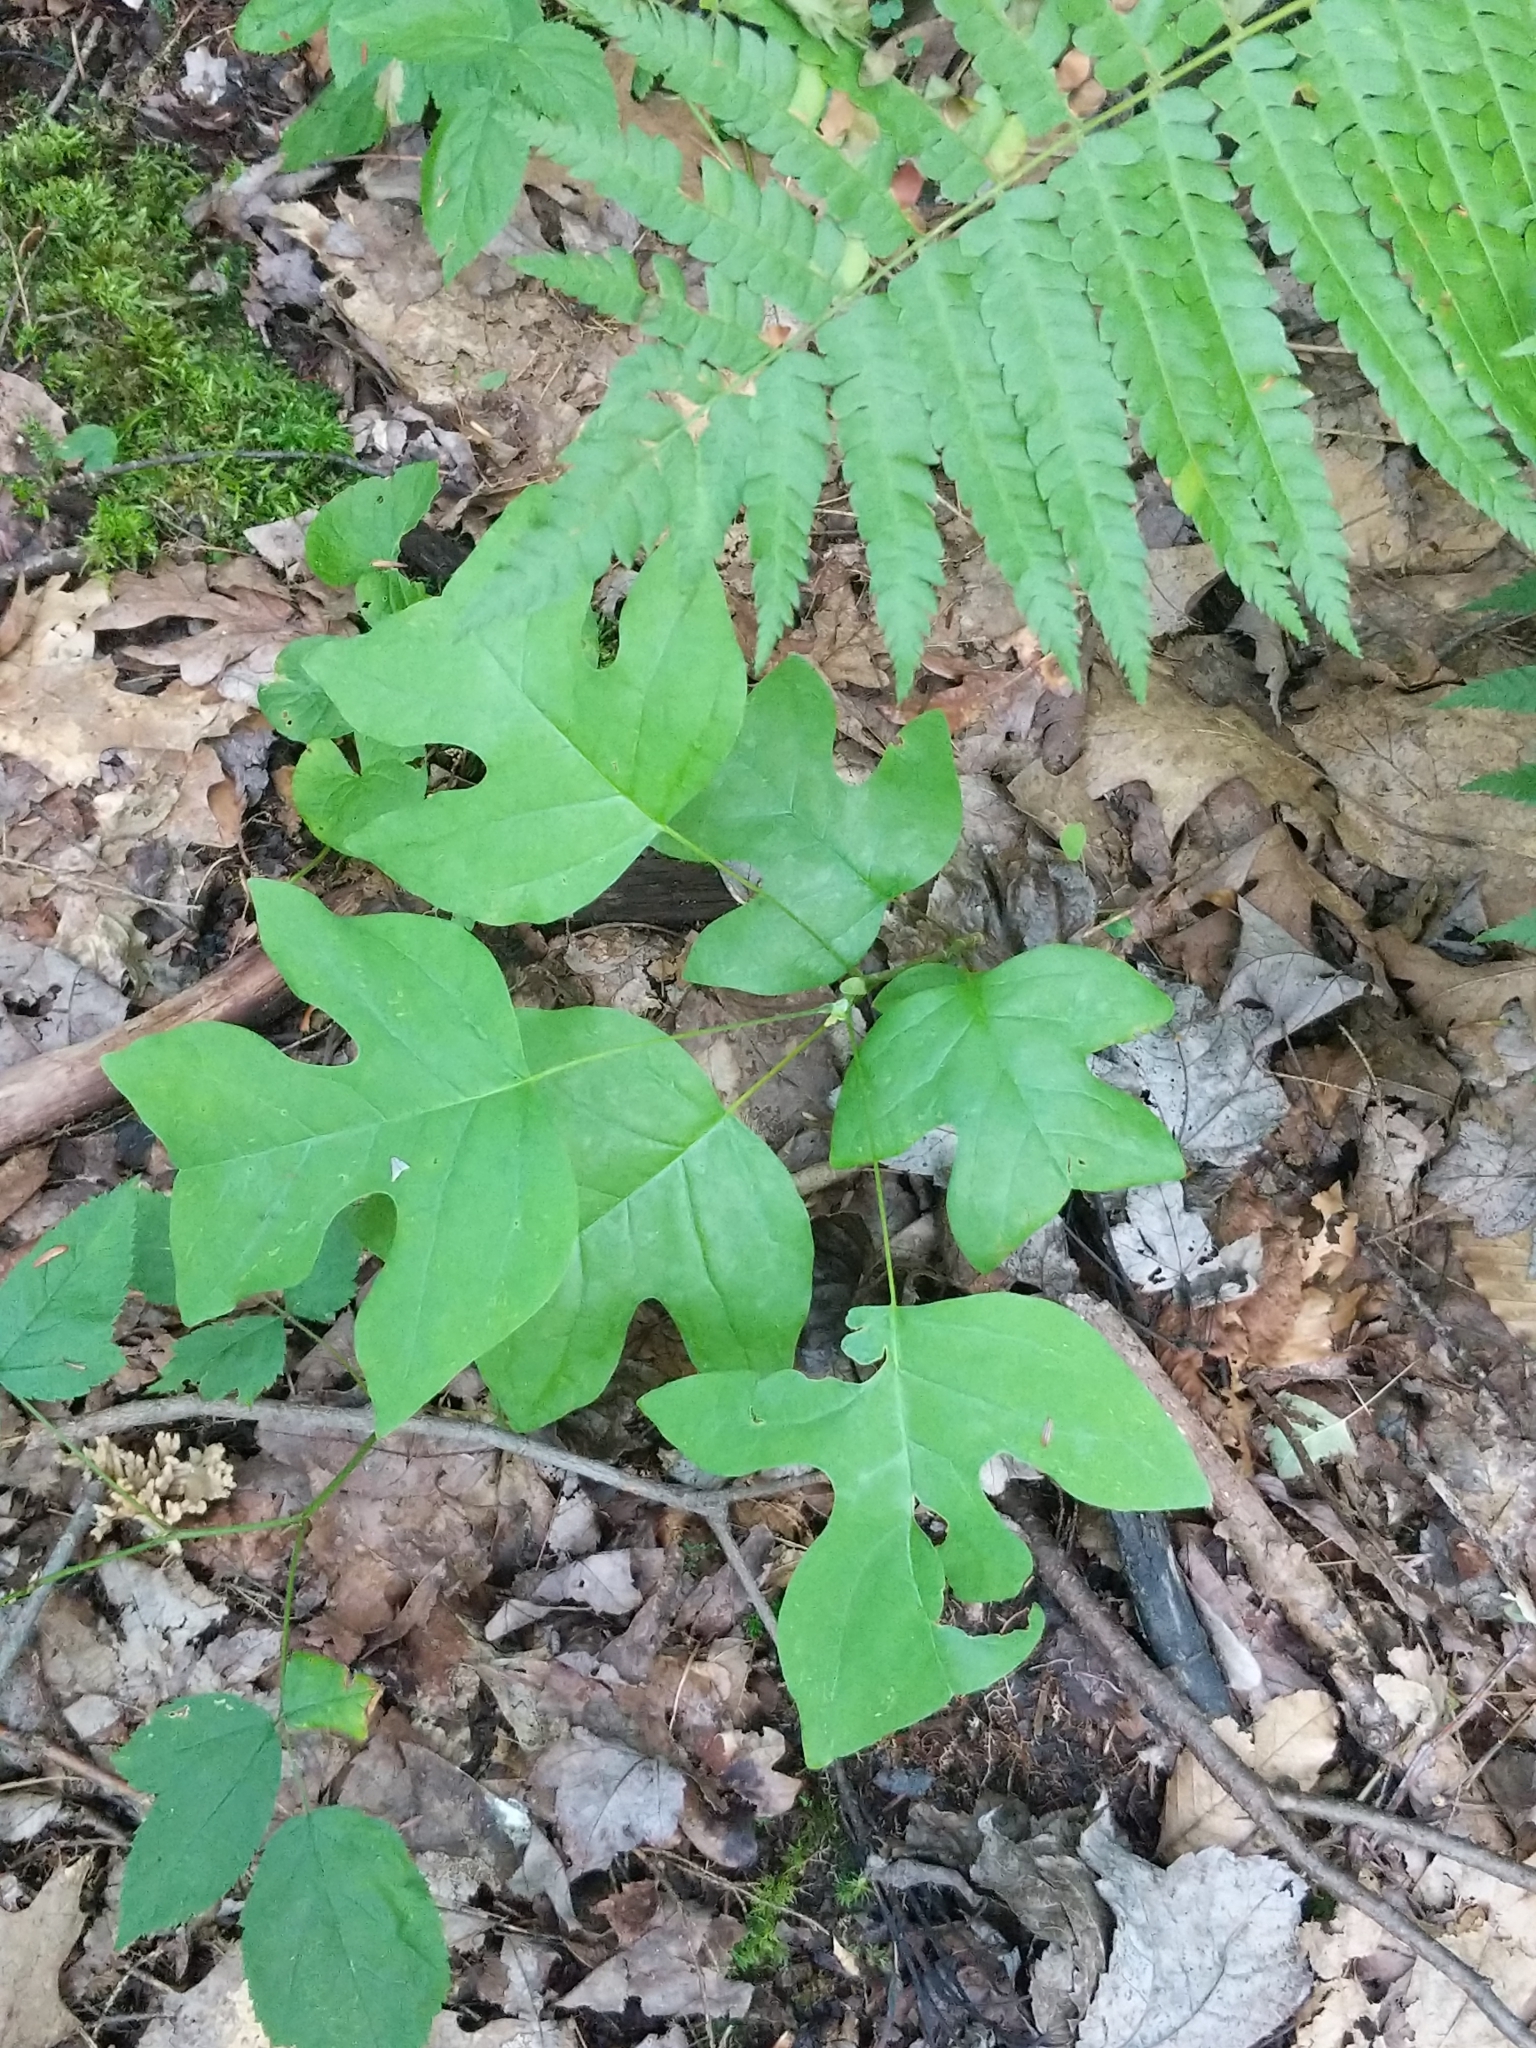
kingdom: Plantae
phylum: Tracheophyta
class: Magnoliopsida
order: Magnoliales
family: Magnoliaceae
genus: Liriodendron
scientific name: Liriodendron tulipifera
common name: Tulip tree
